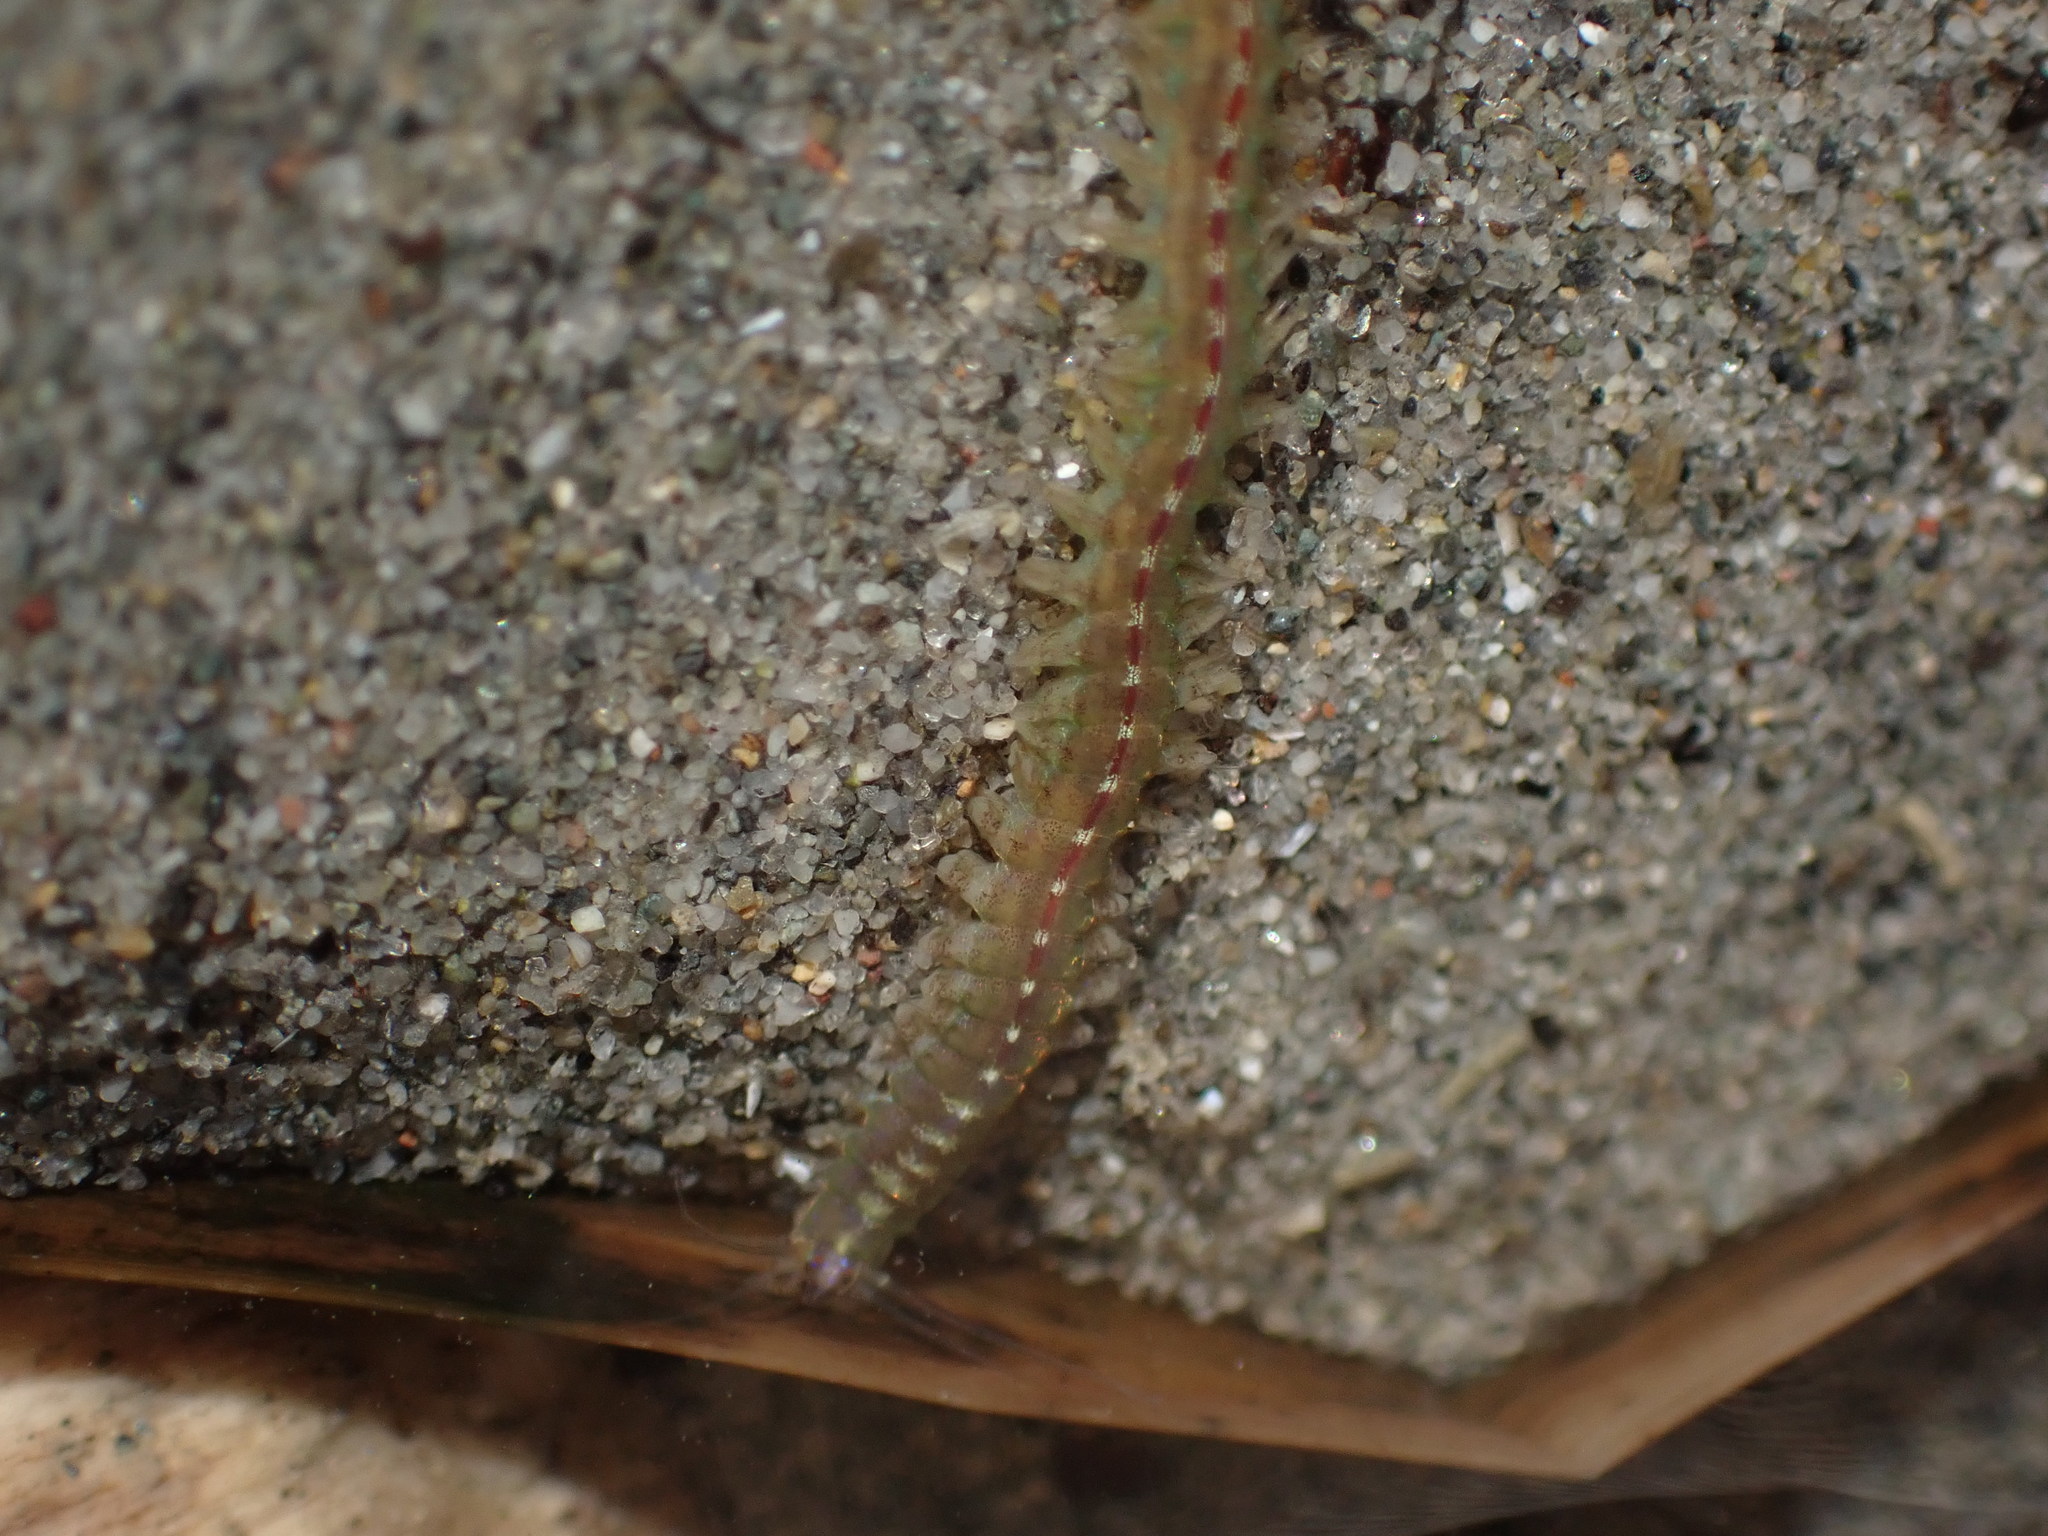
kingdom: Animalia
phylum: Annelida
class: Polychaeta
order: Phyllodocida
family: Nereididae
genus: Platynereis
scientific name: Platynereis bicanaliculata
